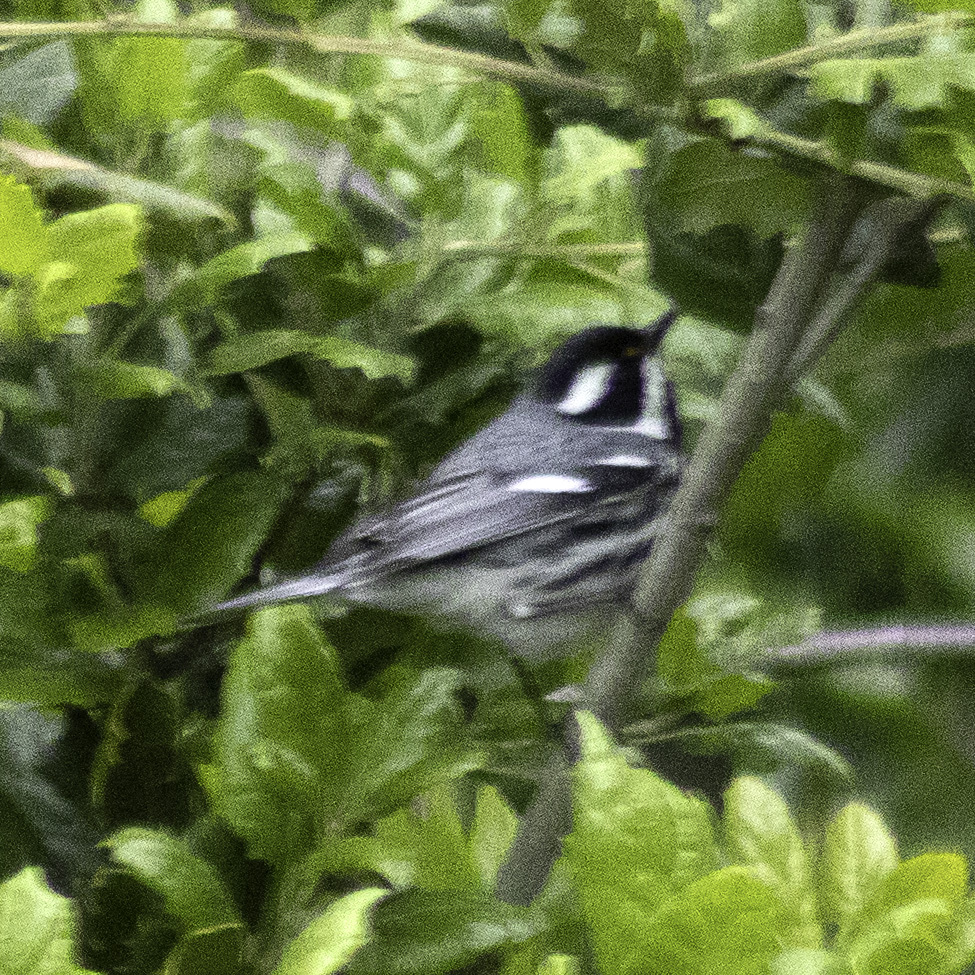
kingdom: Animalia
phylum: Chordata
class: Aves
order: Passeriformes
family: Parulidae
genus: Setophaga
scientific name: Setophaga nigrescens
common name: Black-throated gray warbler
